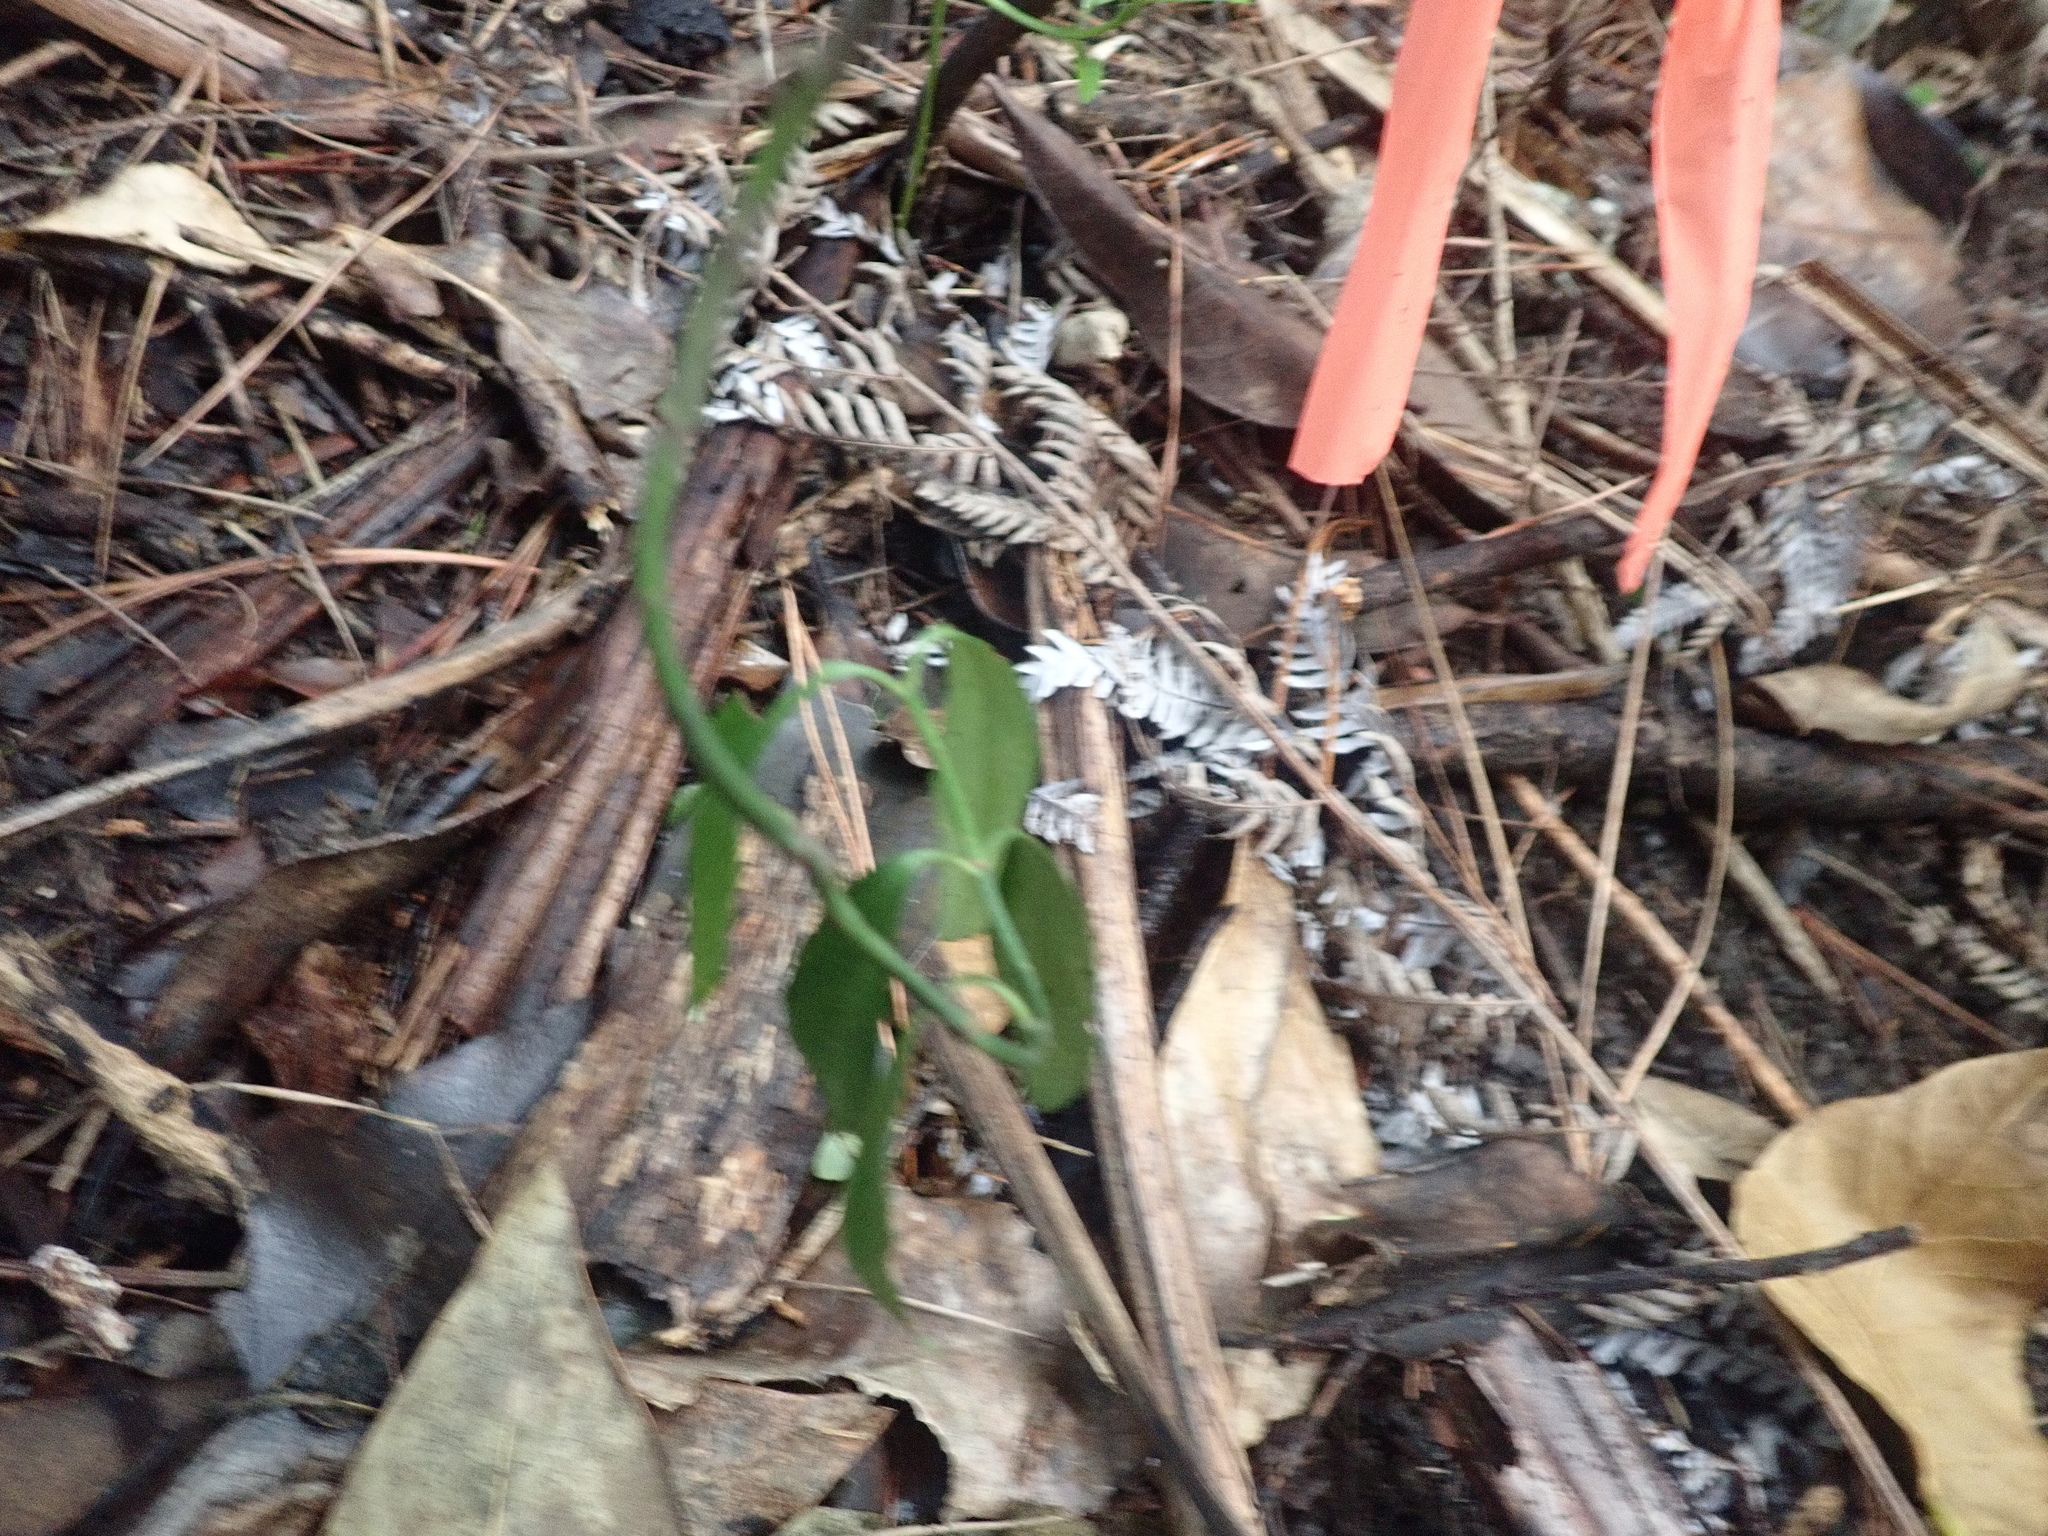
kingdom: Plantae
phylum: Tracheophyta
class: Magnoliopsida
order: Celastrales
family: Celastraceae
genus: Euonymus
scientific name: Euonymus japonicus
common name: Japanese spindletree
